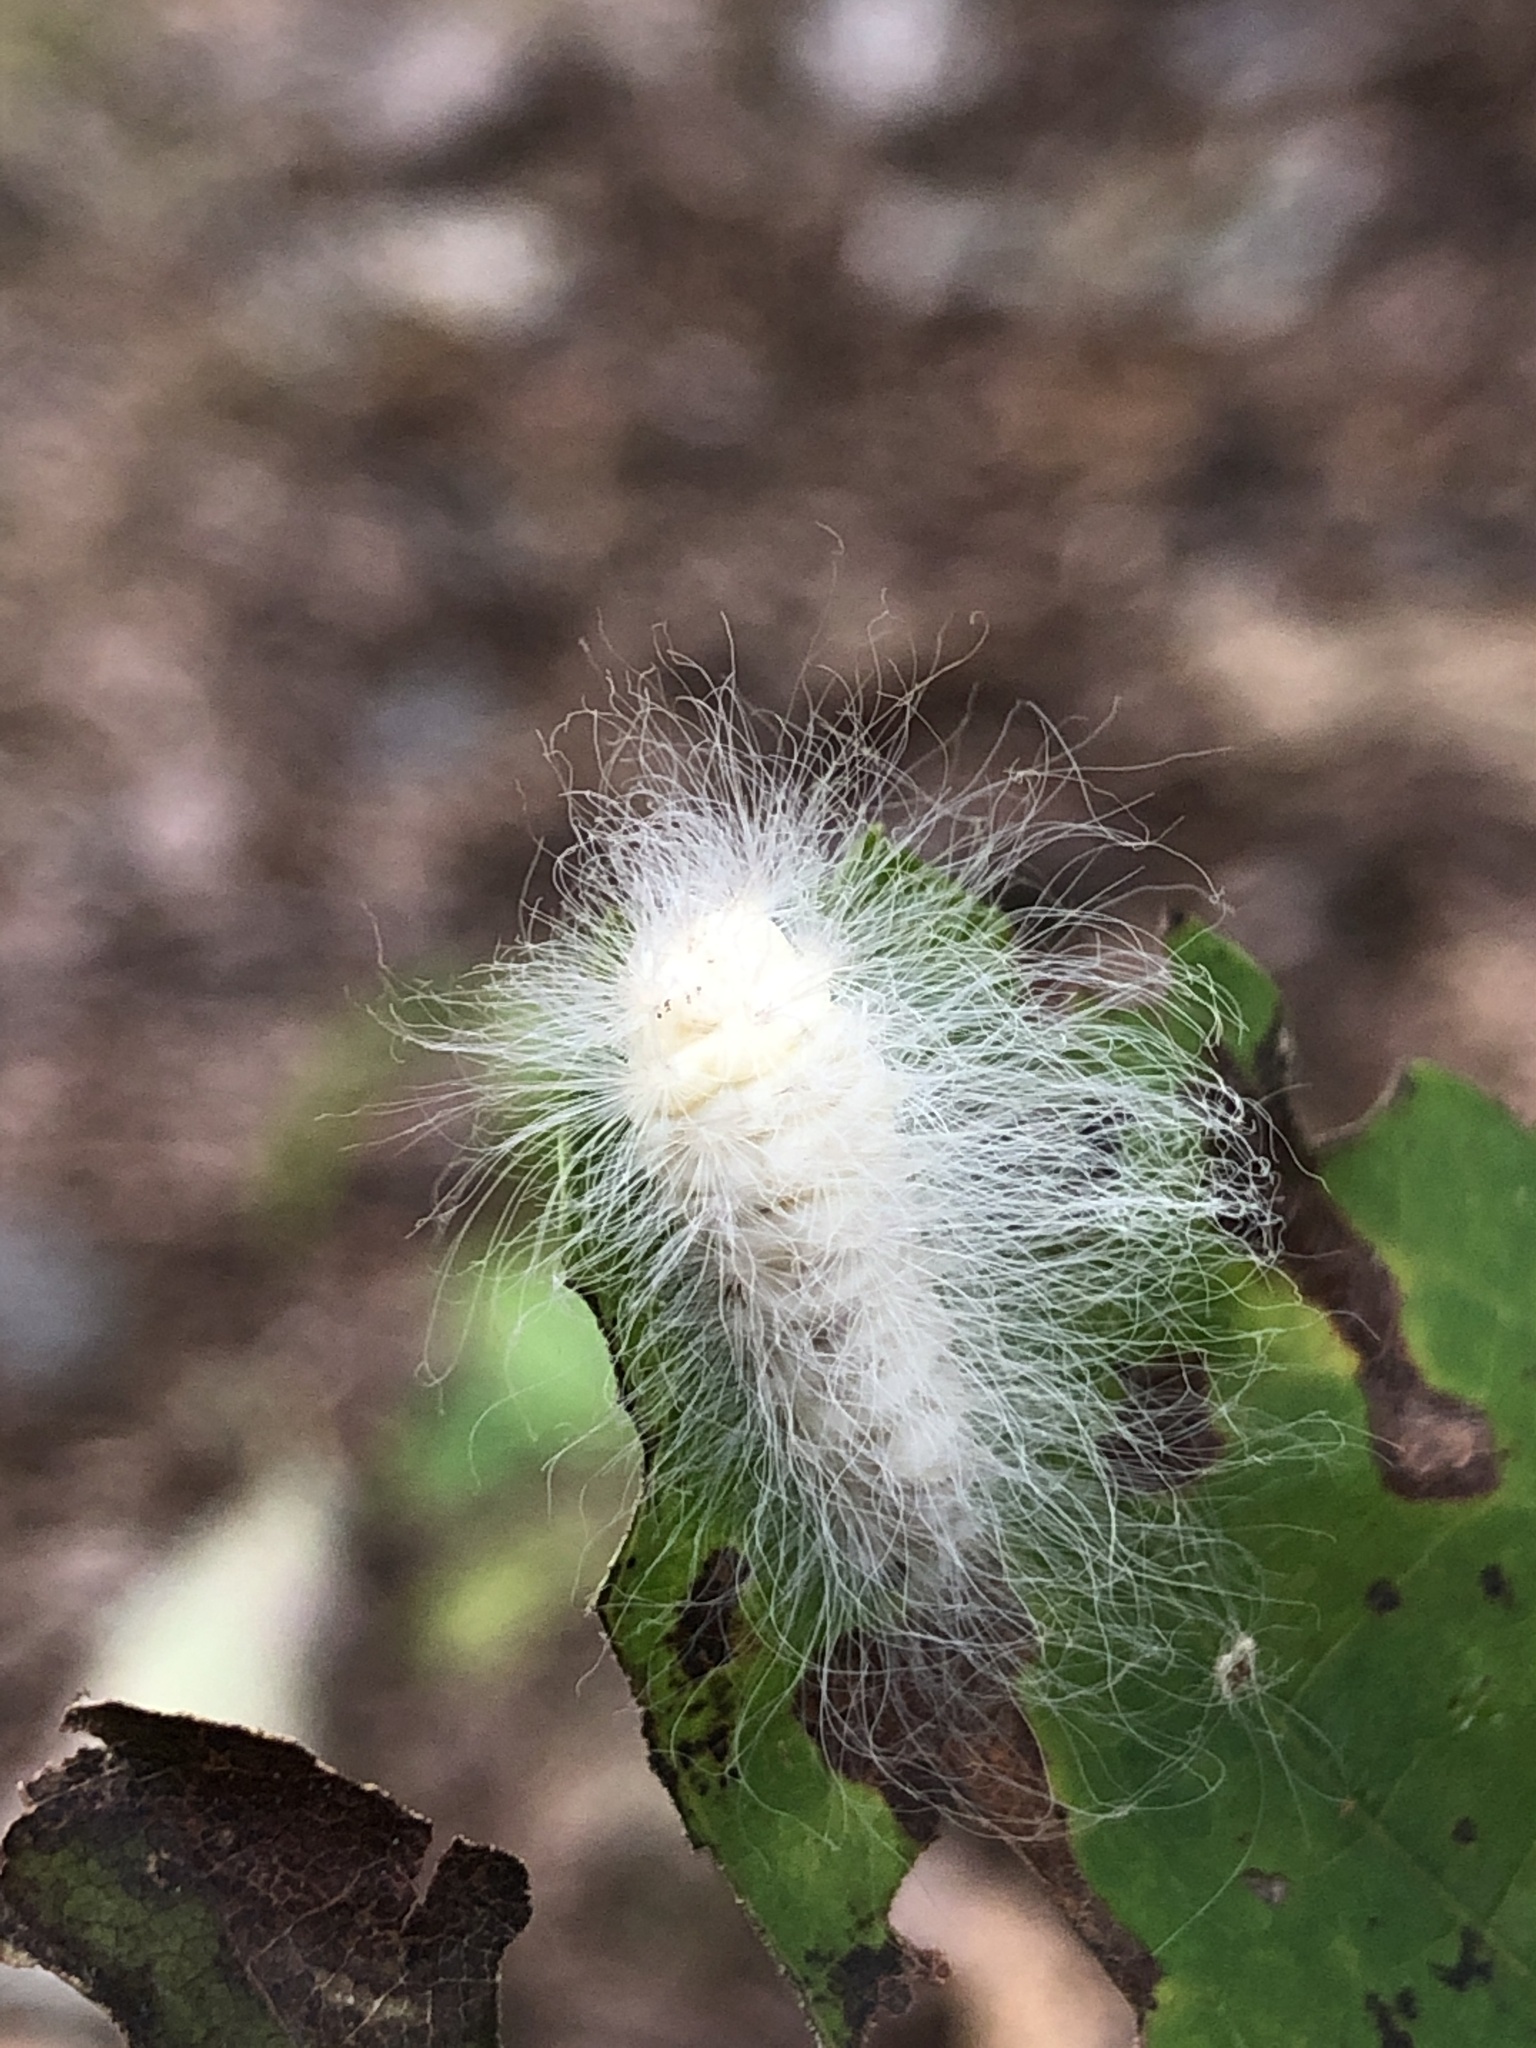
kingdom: Animalia
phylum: Arthropoda
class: Insecta
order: Lepidoptera
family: Megalopygidae
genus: Megalopyge
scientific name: Megalopyge crispata
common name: Black-waved flannel moth
